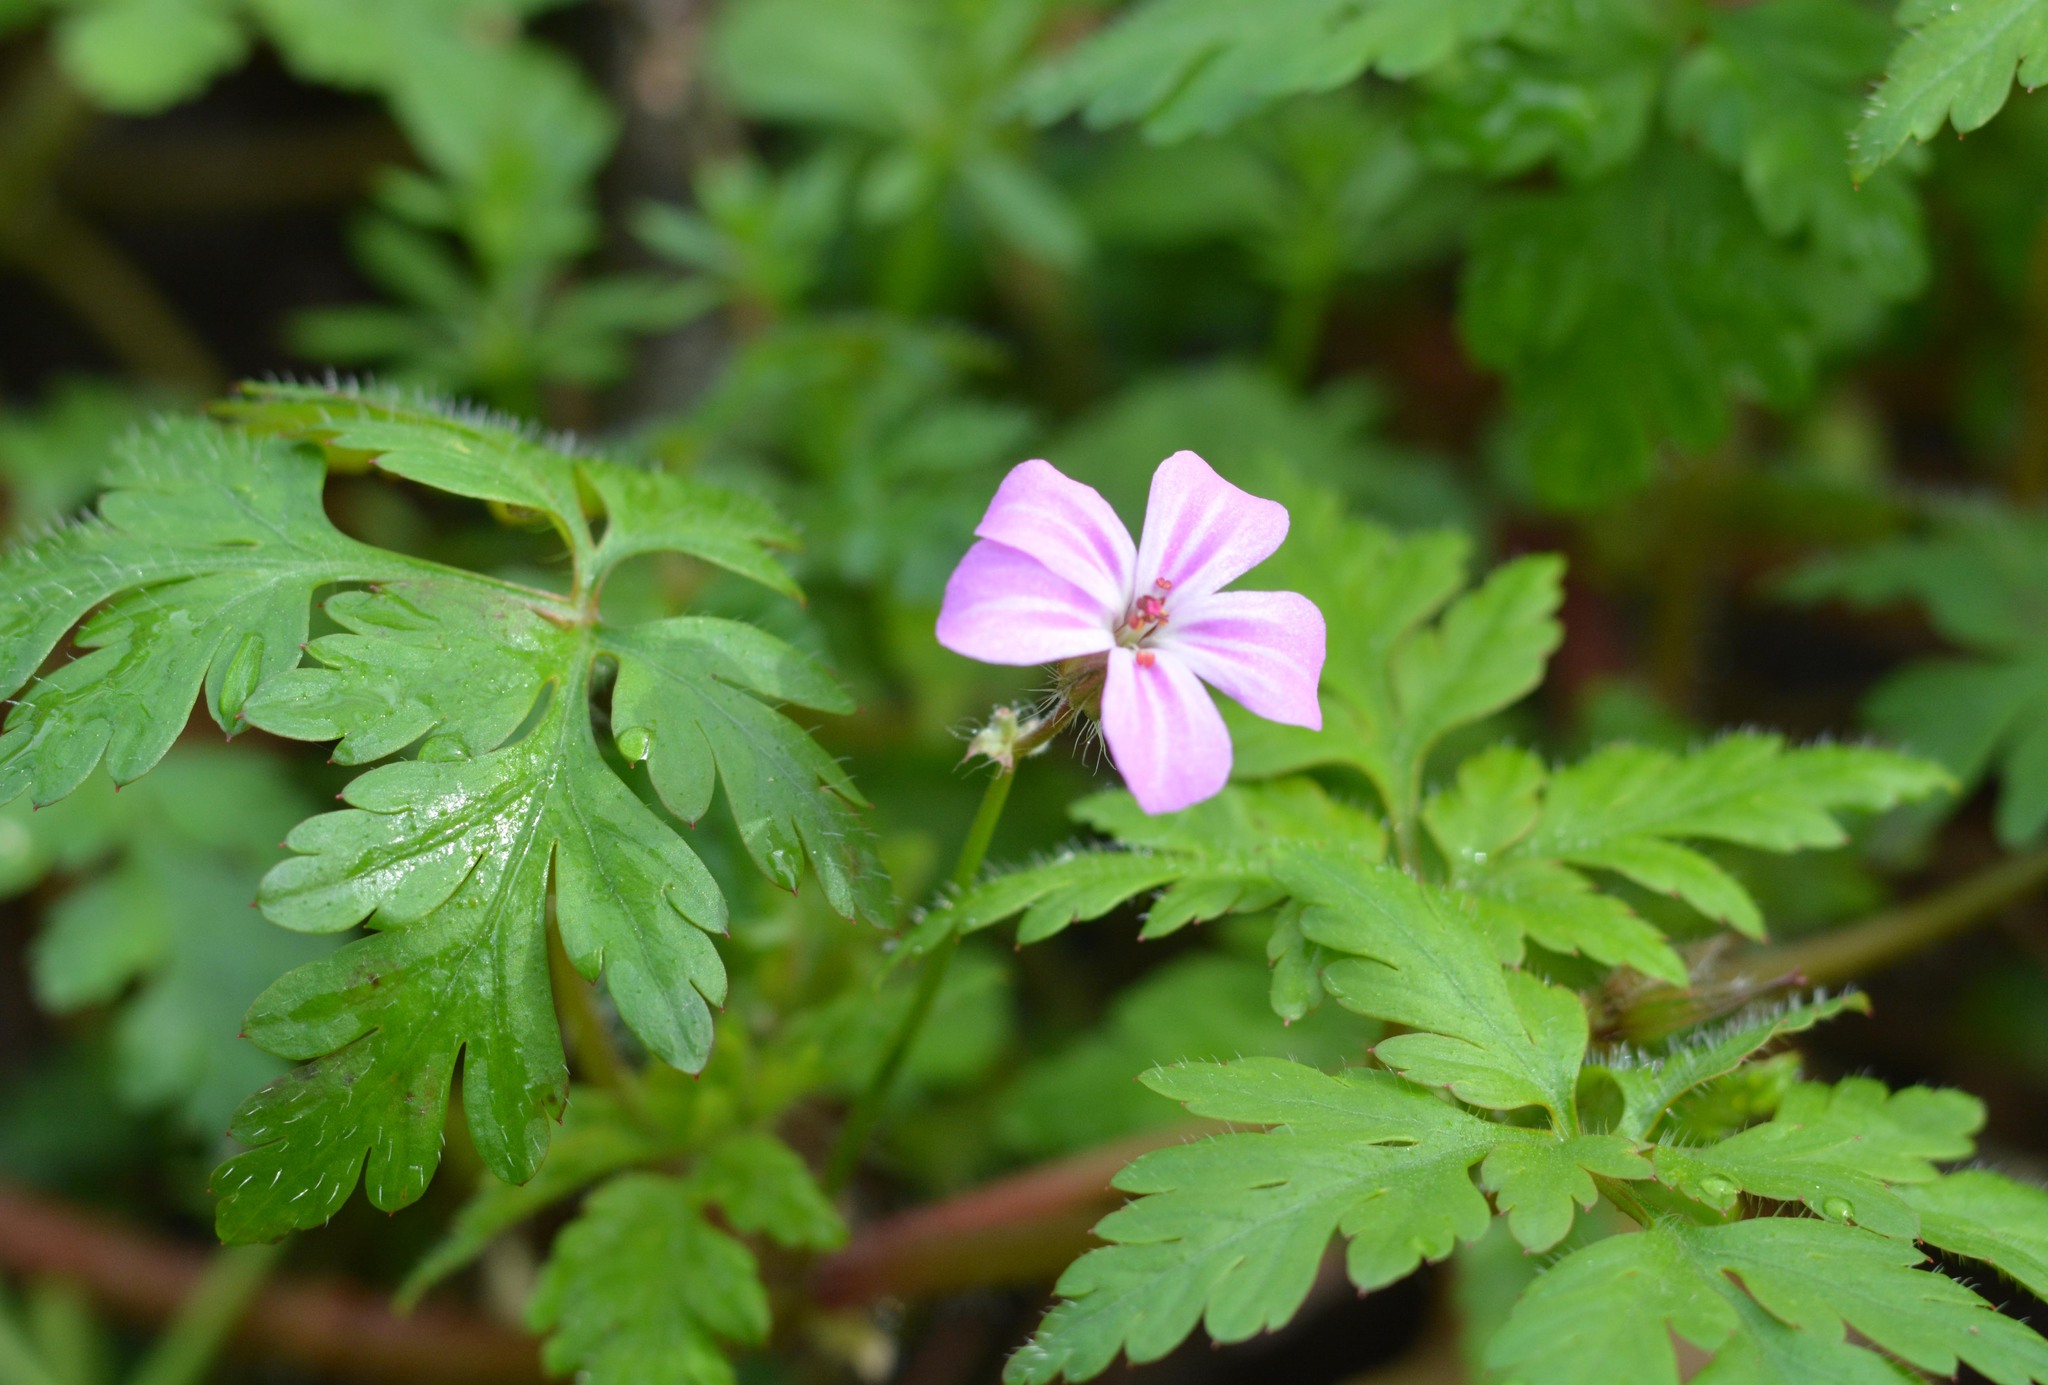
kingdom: Plantae
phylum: Tracheophyta
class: Magnoliopsida
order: Geraniales
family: Geraniaceae
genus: Geranium
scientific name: Geranium robertianum
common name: Herb-robert
